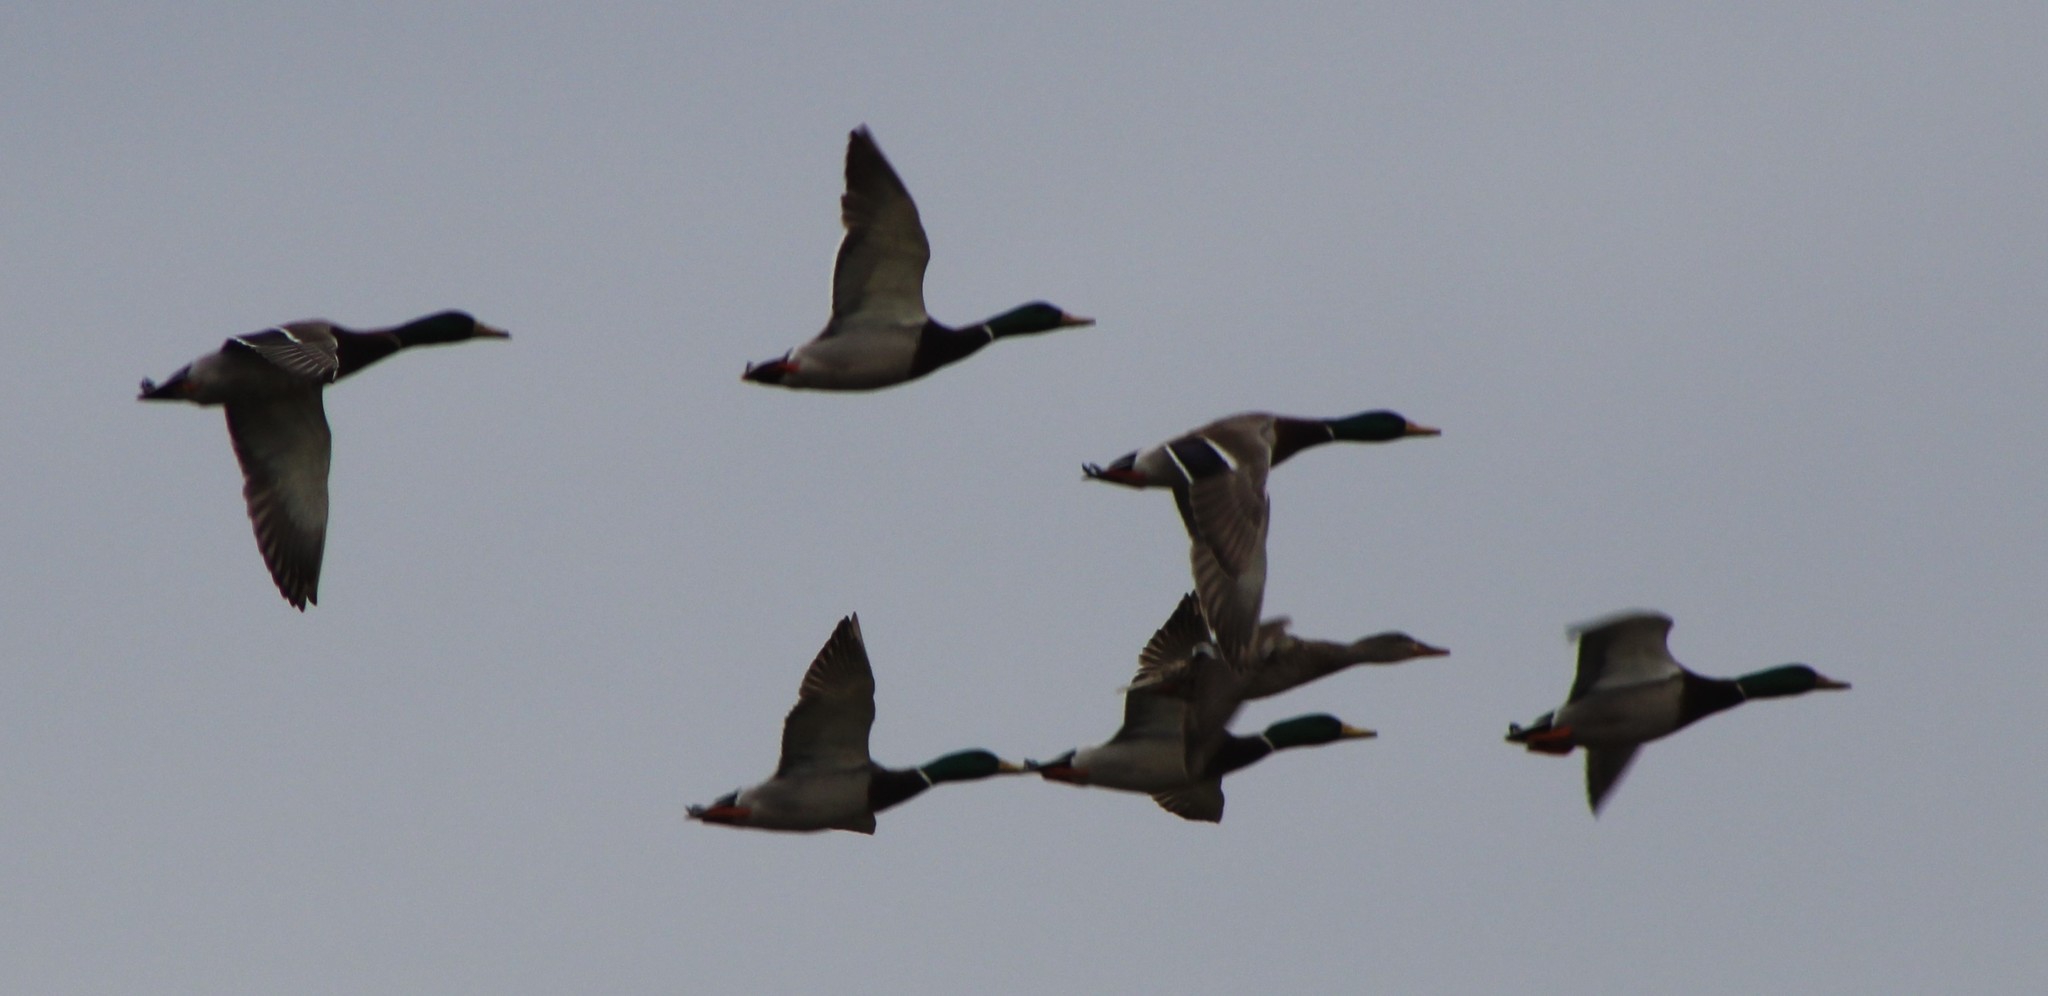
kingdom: Animalia
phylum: Chordata
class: Aves
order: Anseriformes
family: Anatidae
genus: Anas
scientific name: Anas platyrhynchos
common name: Mallard
